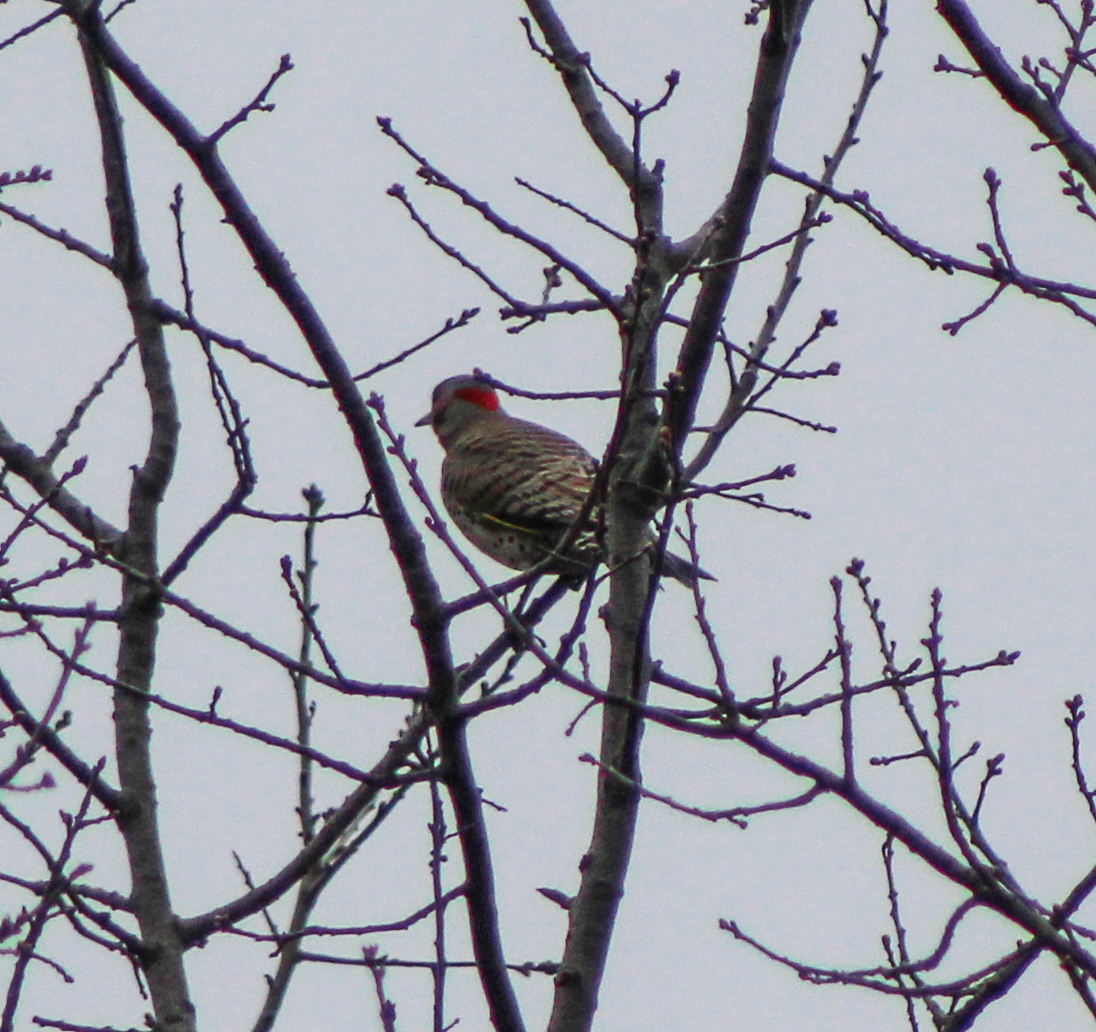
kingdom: Animalia
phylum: Chordata
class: Aves
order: Piciformes
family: Picidae
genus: Colaptes
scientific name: Colaptes auratus
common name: Northern flicker
